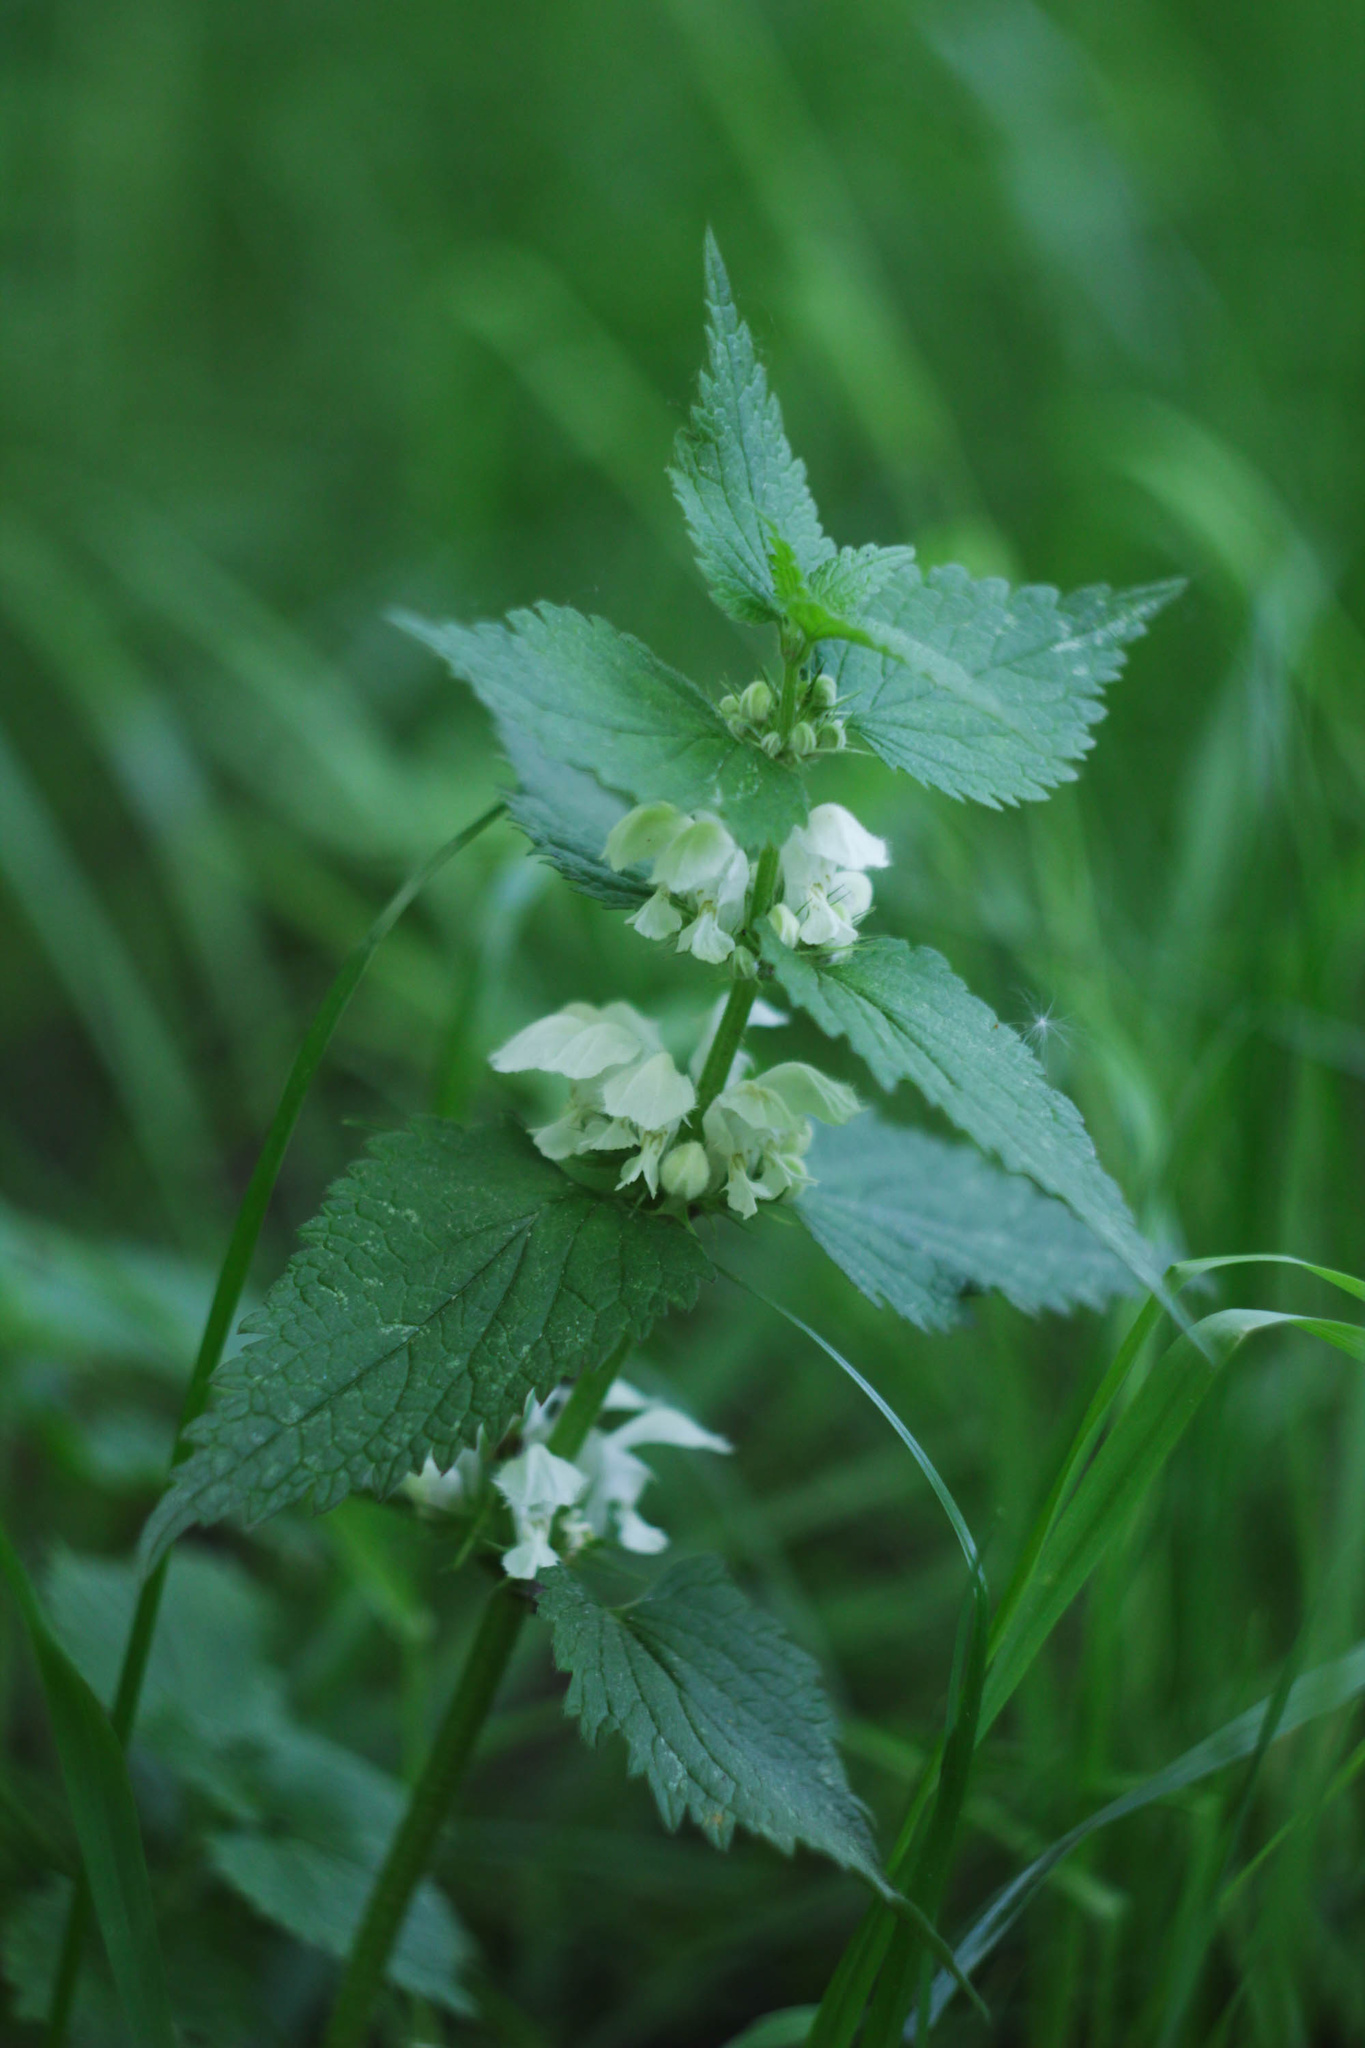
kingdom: Plantae
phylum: Tracheophyta
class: Magnoliopsida
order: Lamiales
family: Lamiaceae
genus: Lamium
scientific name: Lamium album
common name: White dead-nettle
